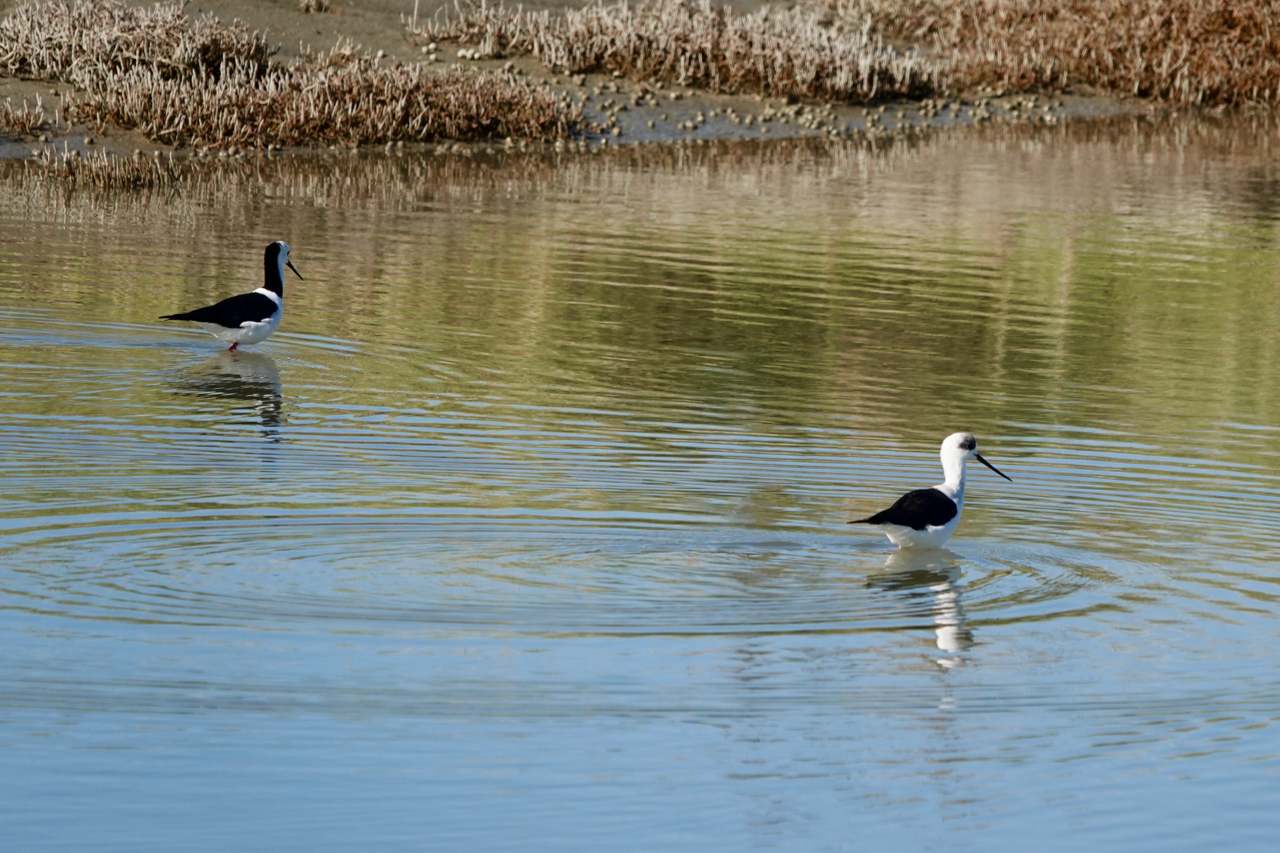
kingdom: Animalia
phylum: Chordata
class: Aves
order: Charadriiformes
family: Recurvirostridae
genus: Himantopus
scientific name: Himantopus leucocephalus
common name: White-headed stilt
